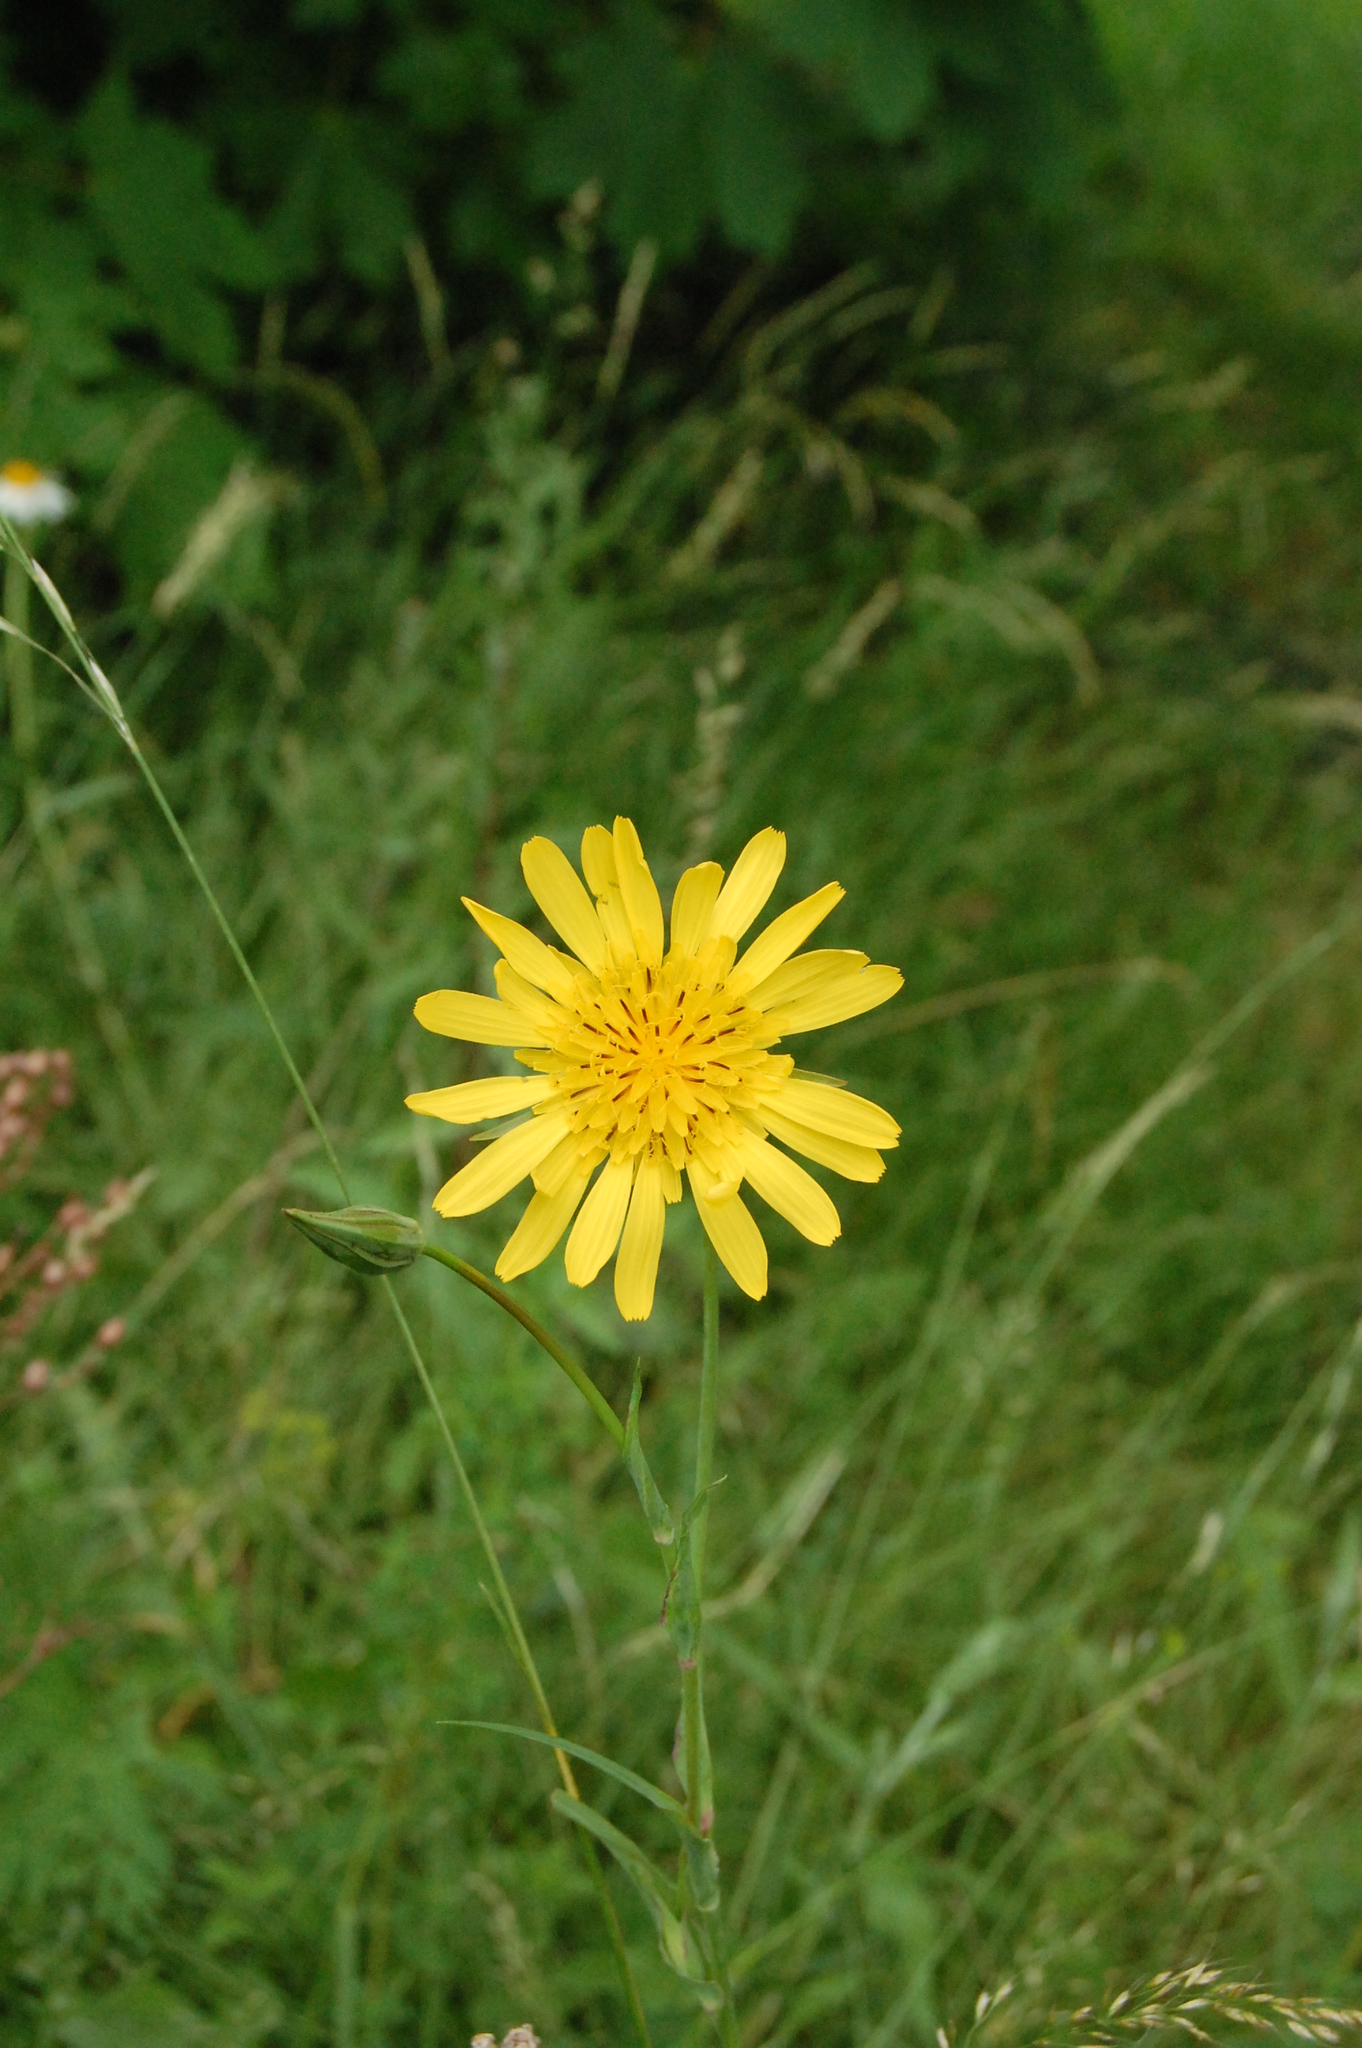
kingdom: Plantae
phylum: Tracheophyta
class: Magnoliopsida
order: Asterales
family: Asteraceae
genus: Tragopogon
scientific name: Tragopogon orientalis
